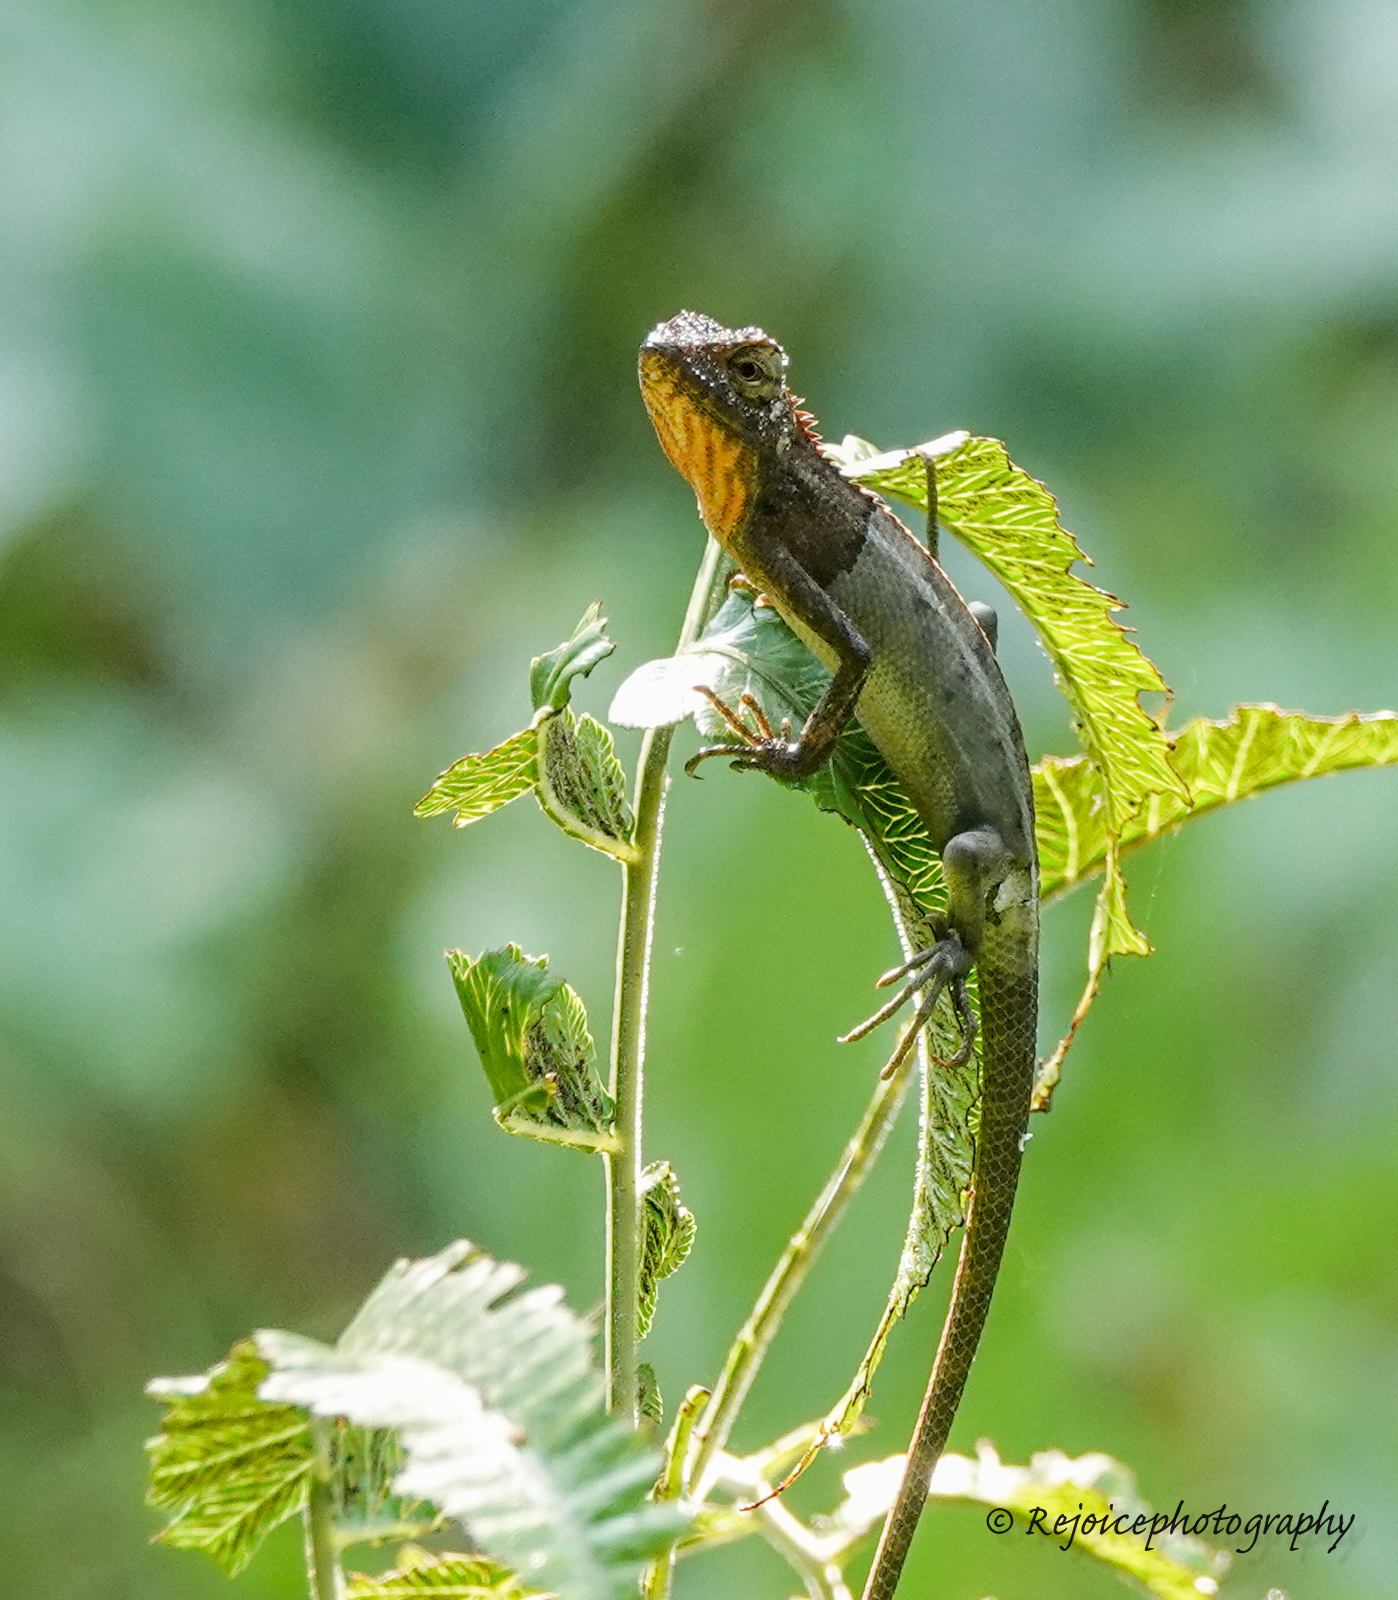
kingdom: Animalia
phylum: Chordata
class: Squamata
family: Agamidae
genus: Calotes
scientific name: Calotes versicolor
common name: Oriental garden lizard
